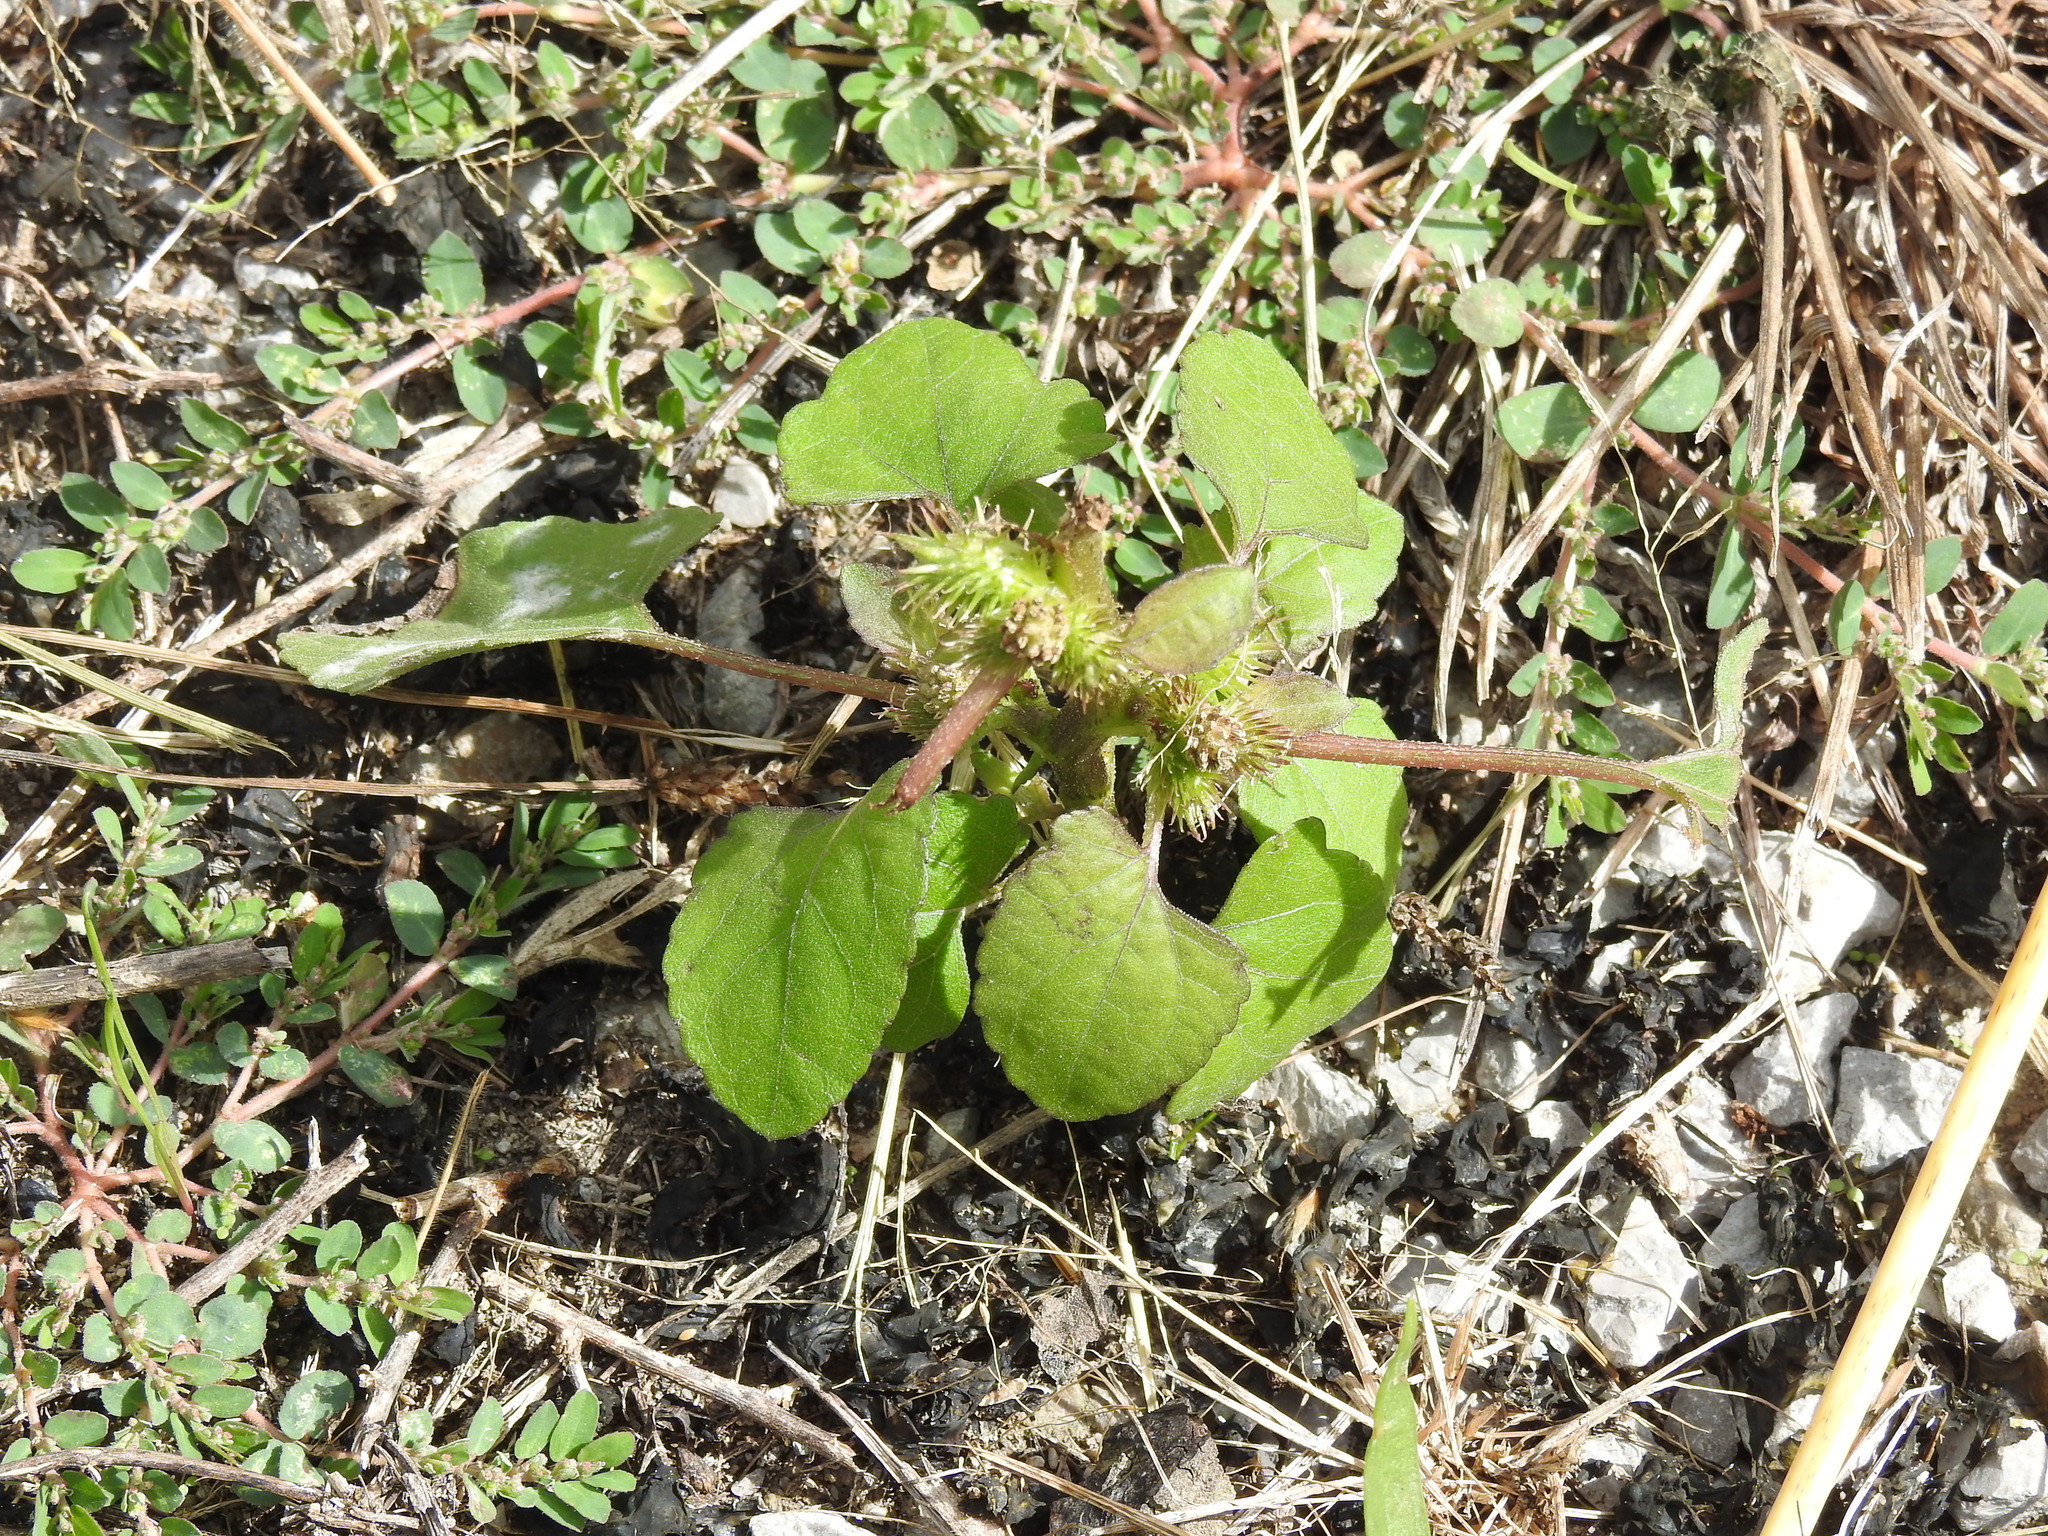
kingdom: Plantae
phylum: Tracheophyta
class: Magnoliopsida
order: Asterales
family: Asteraceae
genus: Xanthium
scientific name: Xanthium strumarium
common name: Rough cocklebur
